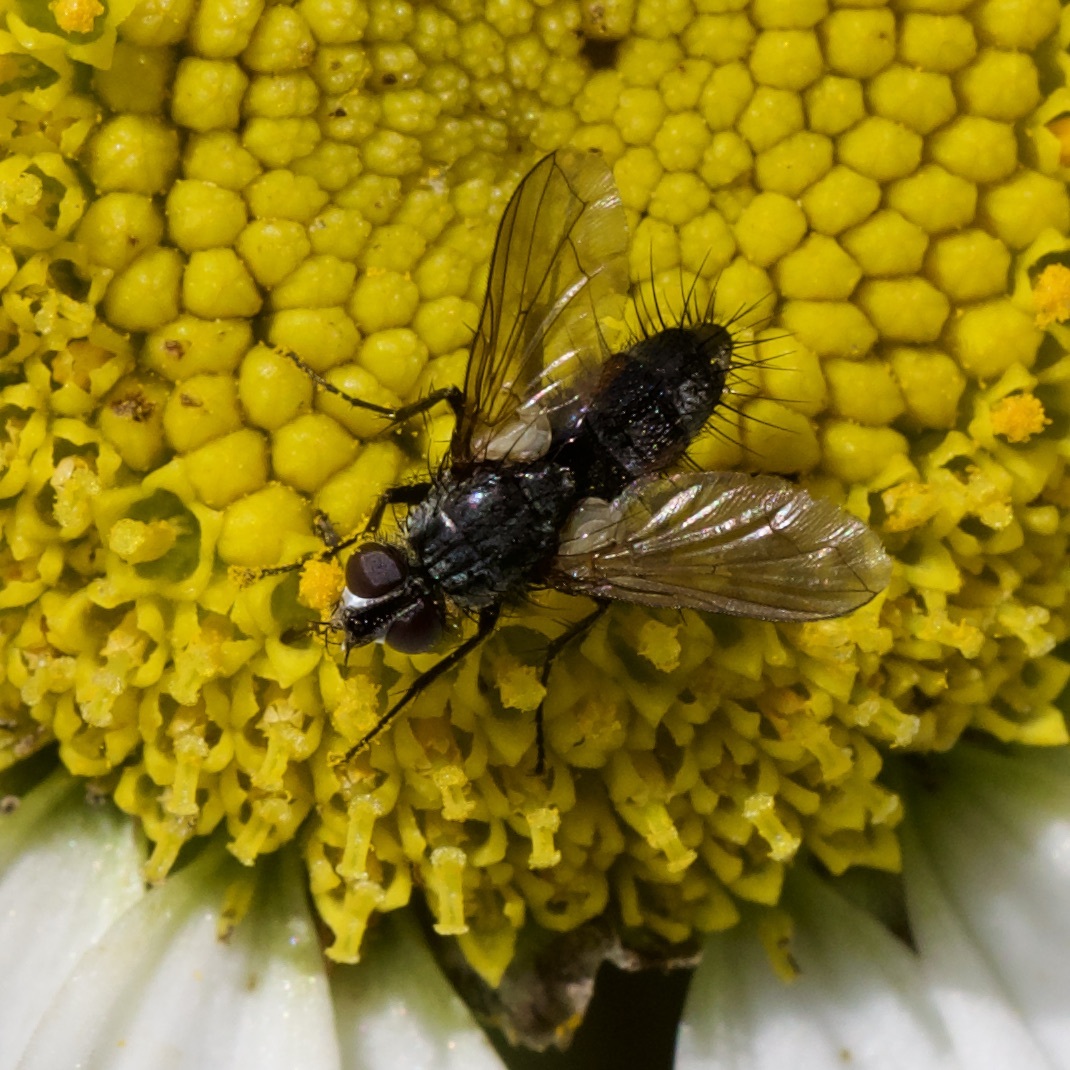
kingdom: Animalia
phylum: Arthropoda
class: Insecta
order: Diptera
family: Tachinidae
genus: Eriothrix
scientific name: Eriothrix rufomaculatus
